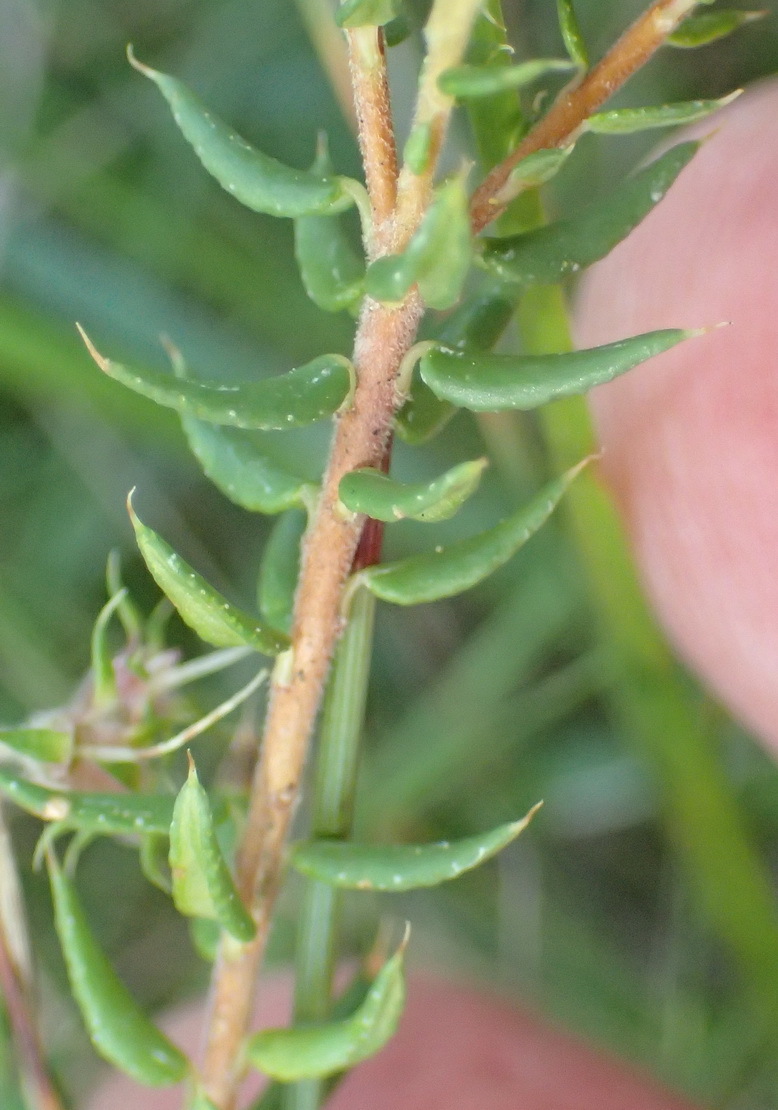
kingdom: Plantae
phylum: Tracheophyta
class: Magnoliopsida
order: Sapindales
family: Rutaceae
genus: Agathosma
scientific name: Agathosma acutissima
